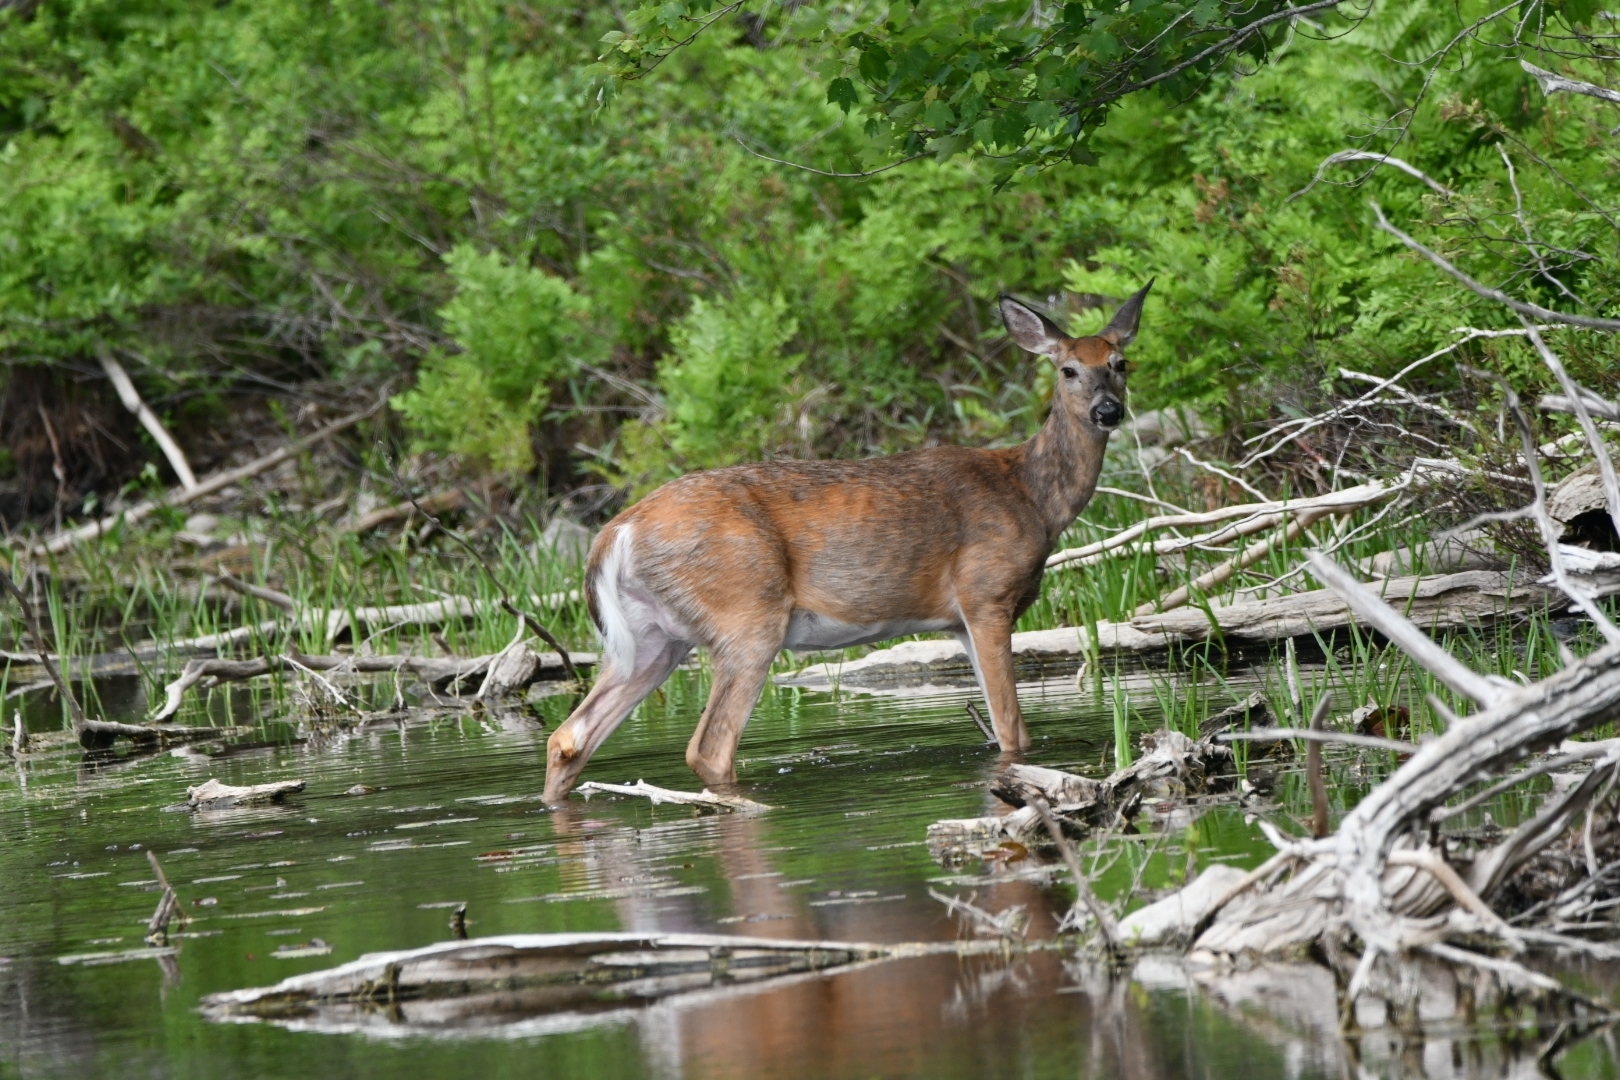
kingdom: Animalia
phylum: Chordata
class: Mammalia
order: Artiodactyla
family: Cervidae
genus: Odocoileus
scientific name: Odocoileus virginianus
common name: White-tailed deer
